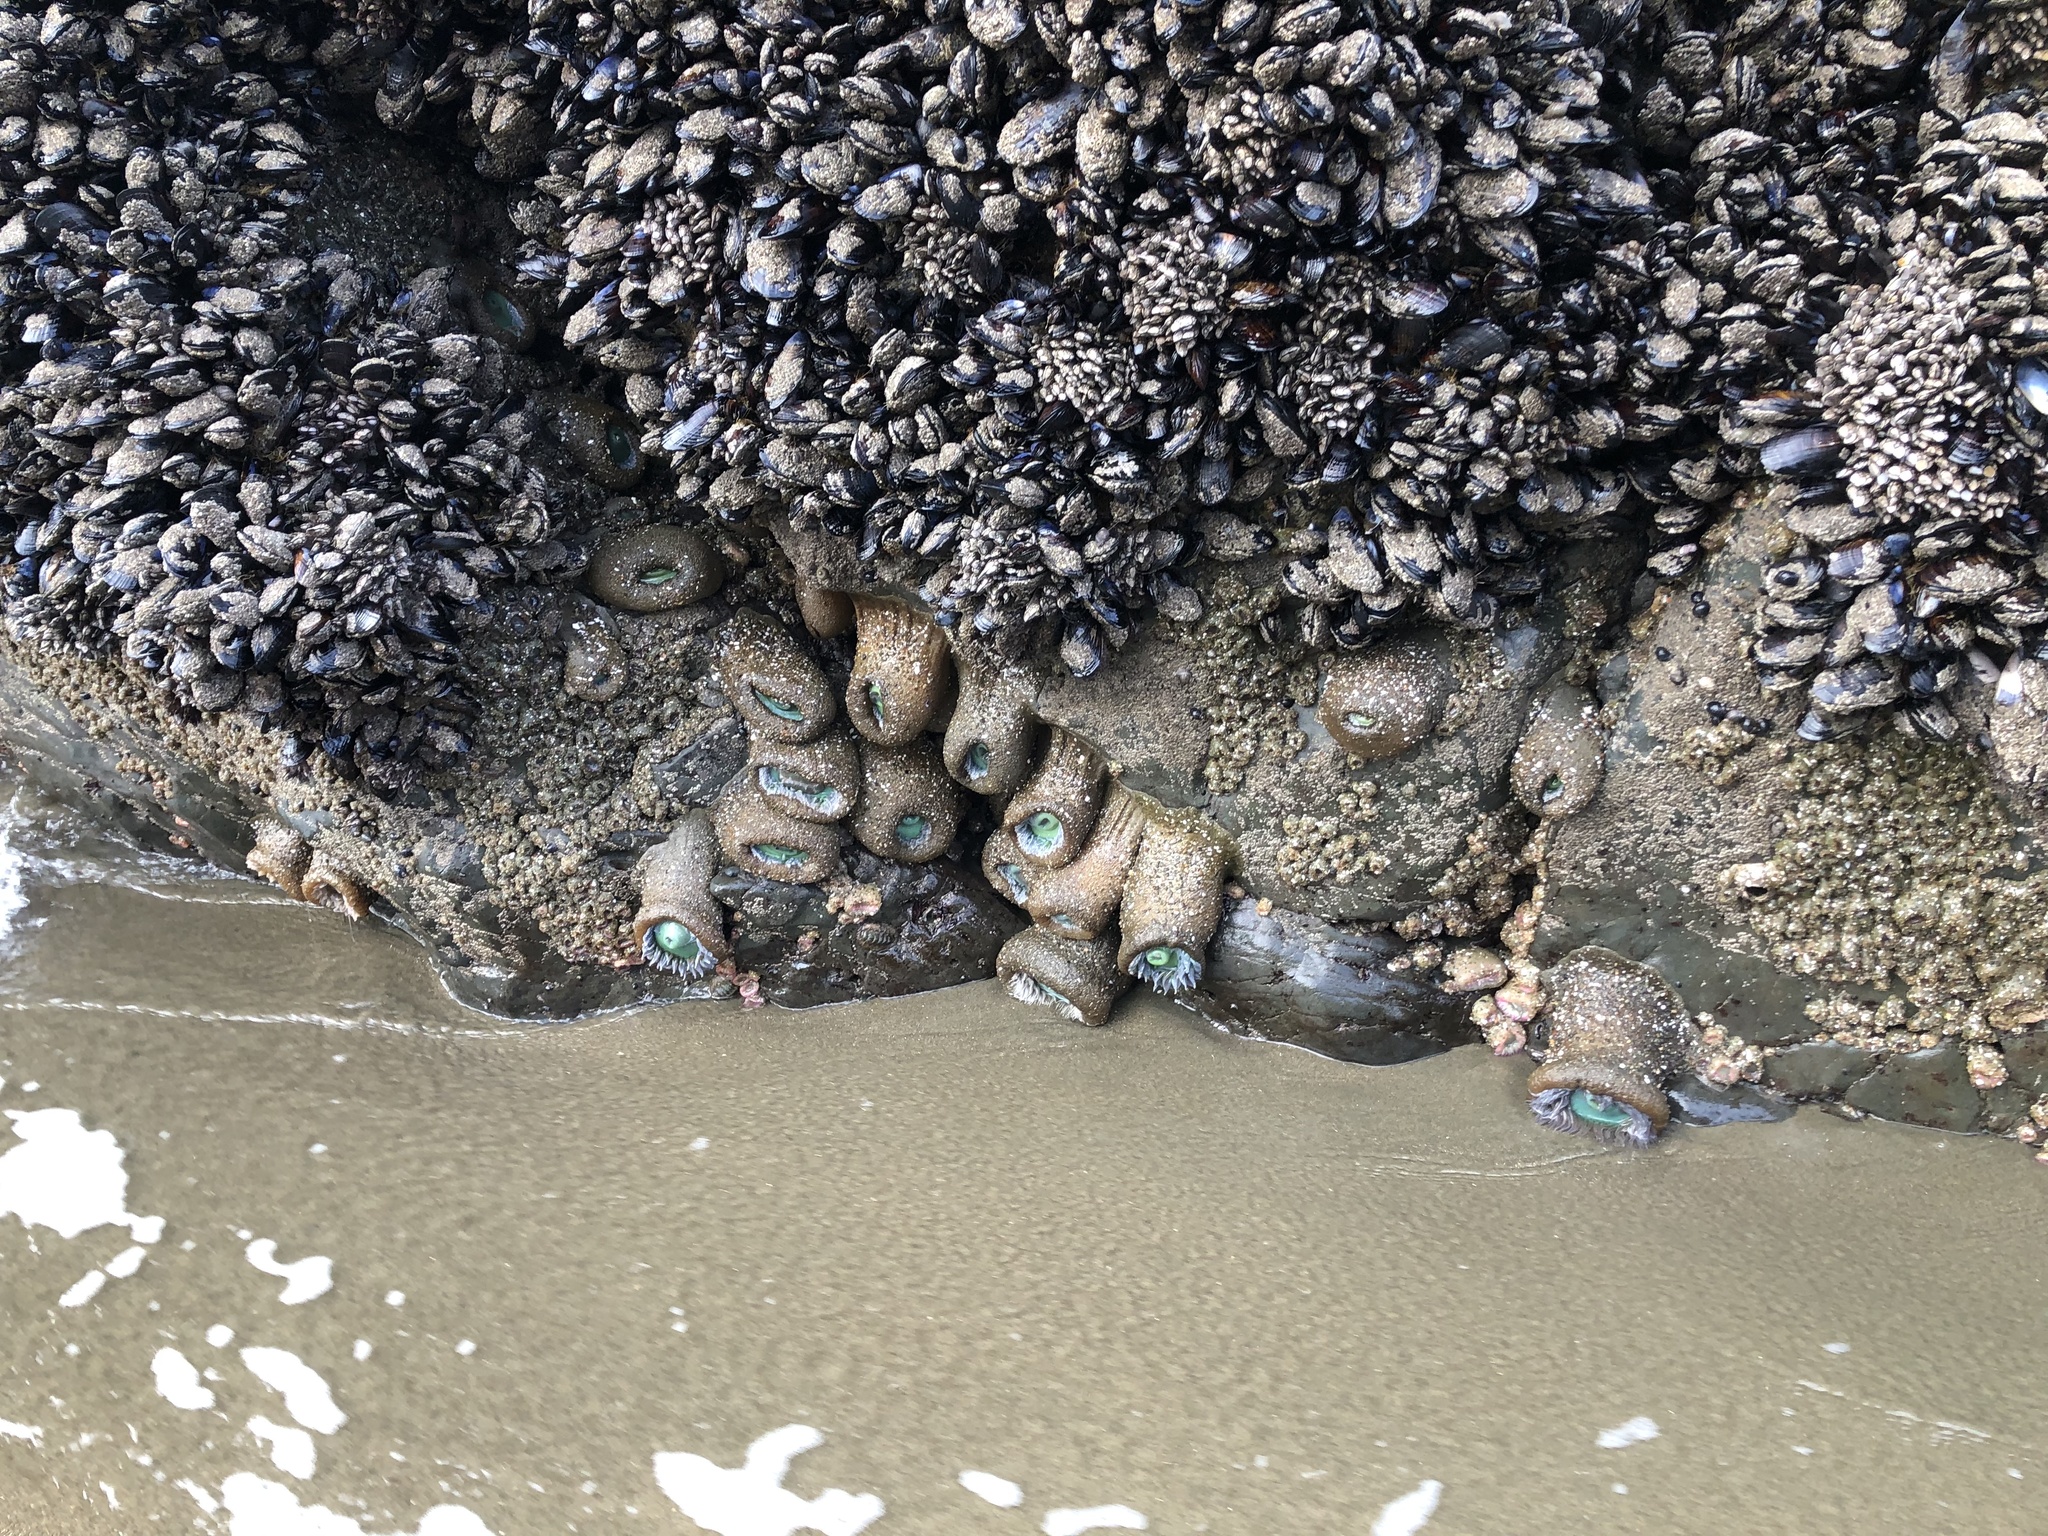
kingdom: Animalia
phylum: Cnidaria
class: Anthozoa
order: Actiniaria
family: Actiniidae
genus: Anthopleura
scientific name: Anthopleura xanthogrammica
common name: Giant green anemone
